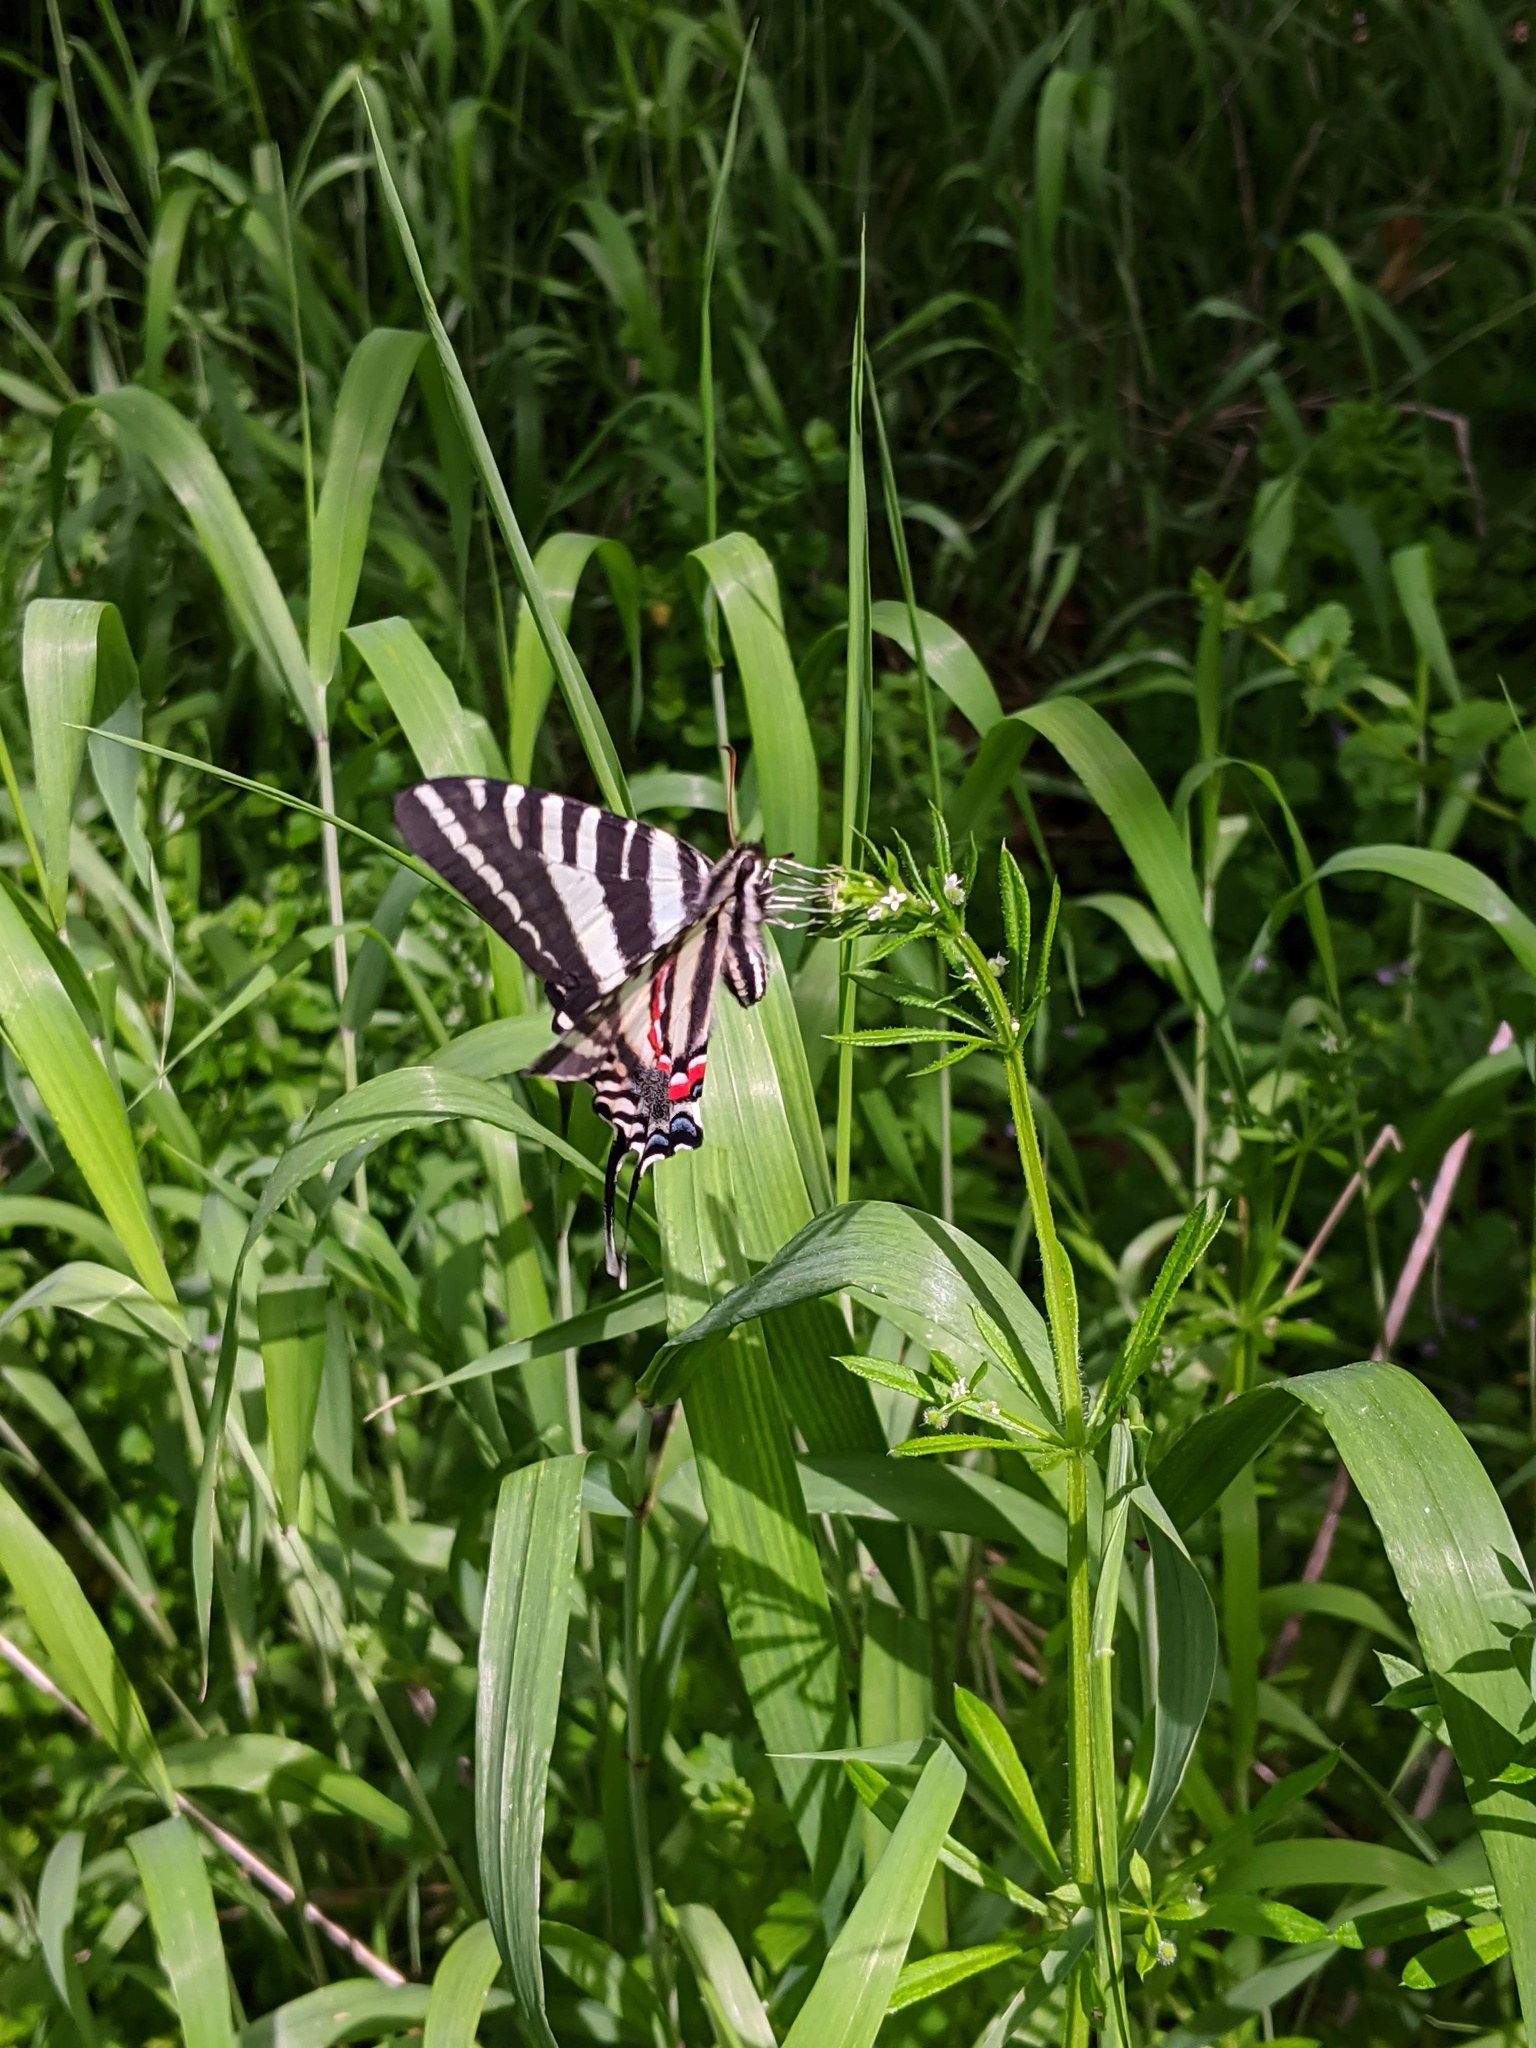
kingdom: Animalia
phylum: Arthropoda
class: Insecta
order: Lepidoptera
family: Papilionidae
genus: Protographium
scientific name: Protographium marcellus
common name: Zebra swallowtail
